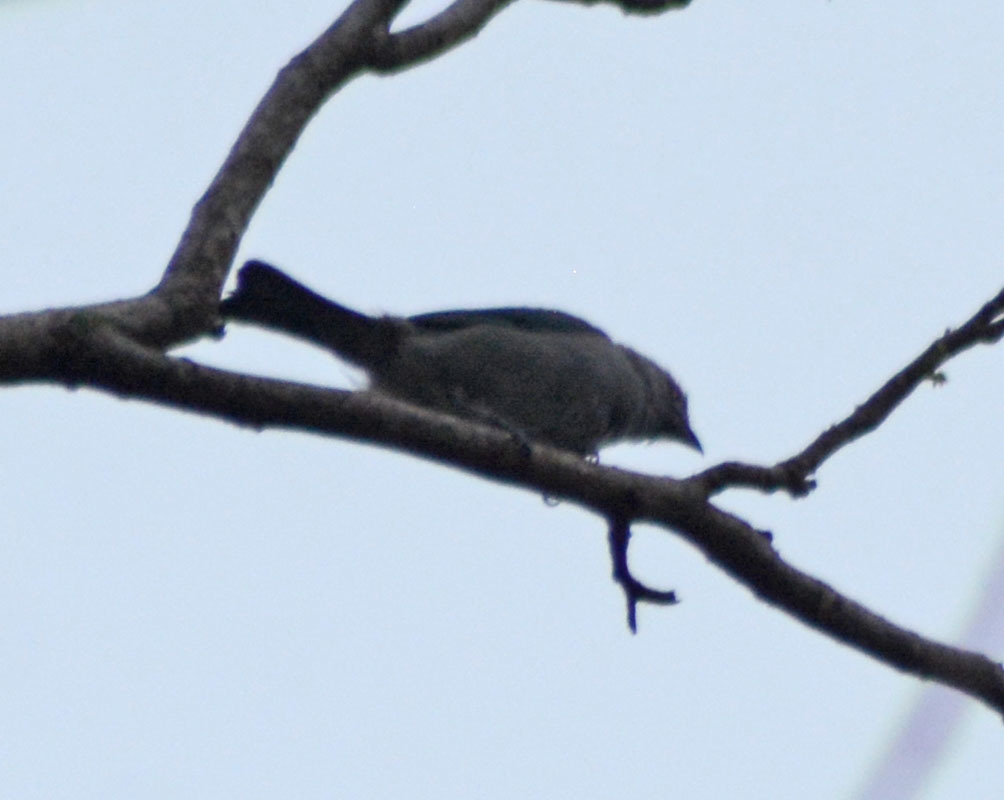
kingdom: Animalia
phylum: Chordata
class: Aves
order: Passeriformes
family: Thraupidae
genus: Thraupis
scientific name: Thraupis episcopus
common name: Blue-grey tanager
